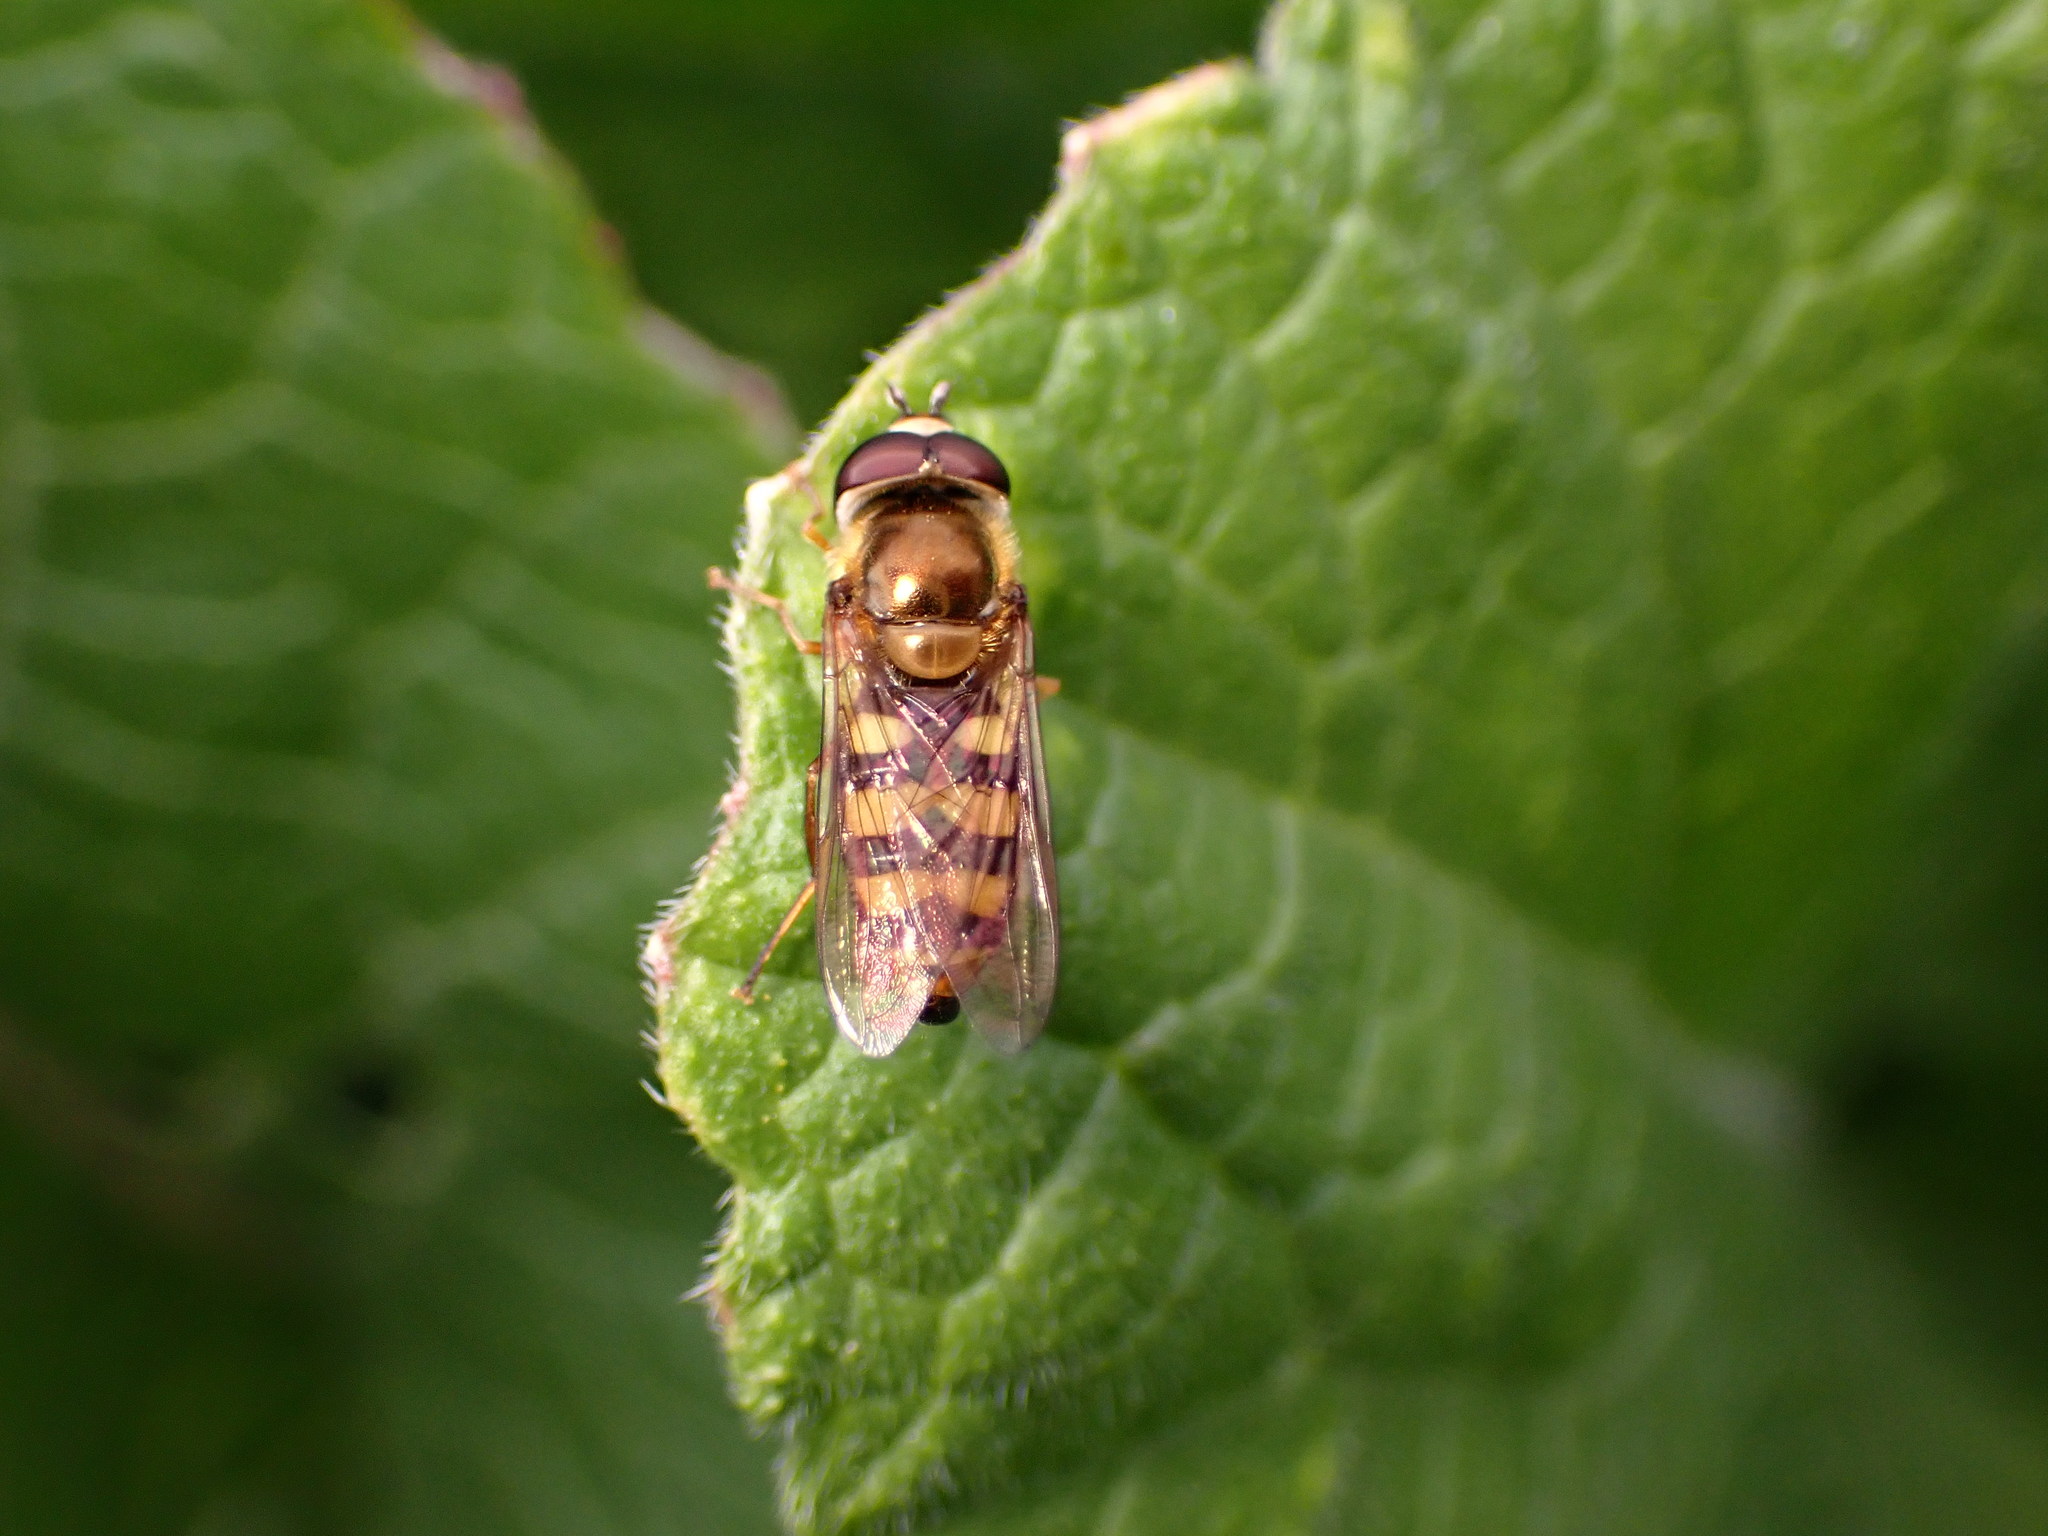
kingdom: Animalia
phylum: Arthropoda
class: Insecta
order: Diptera
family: Syrphidae
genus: Eupeodes
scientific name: Eupeodes fumipennis
